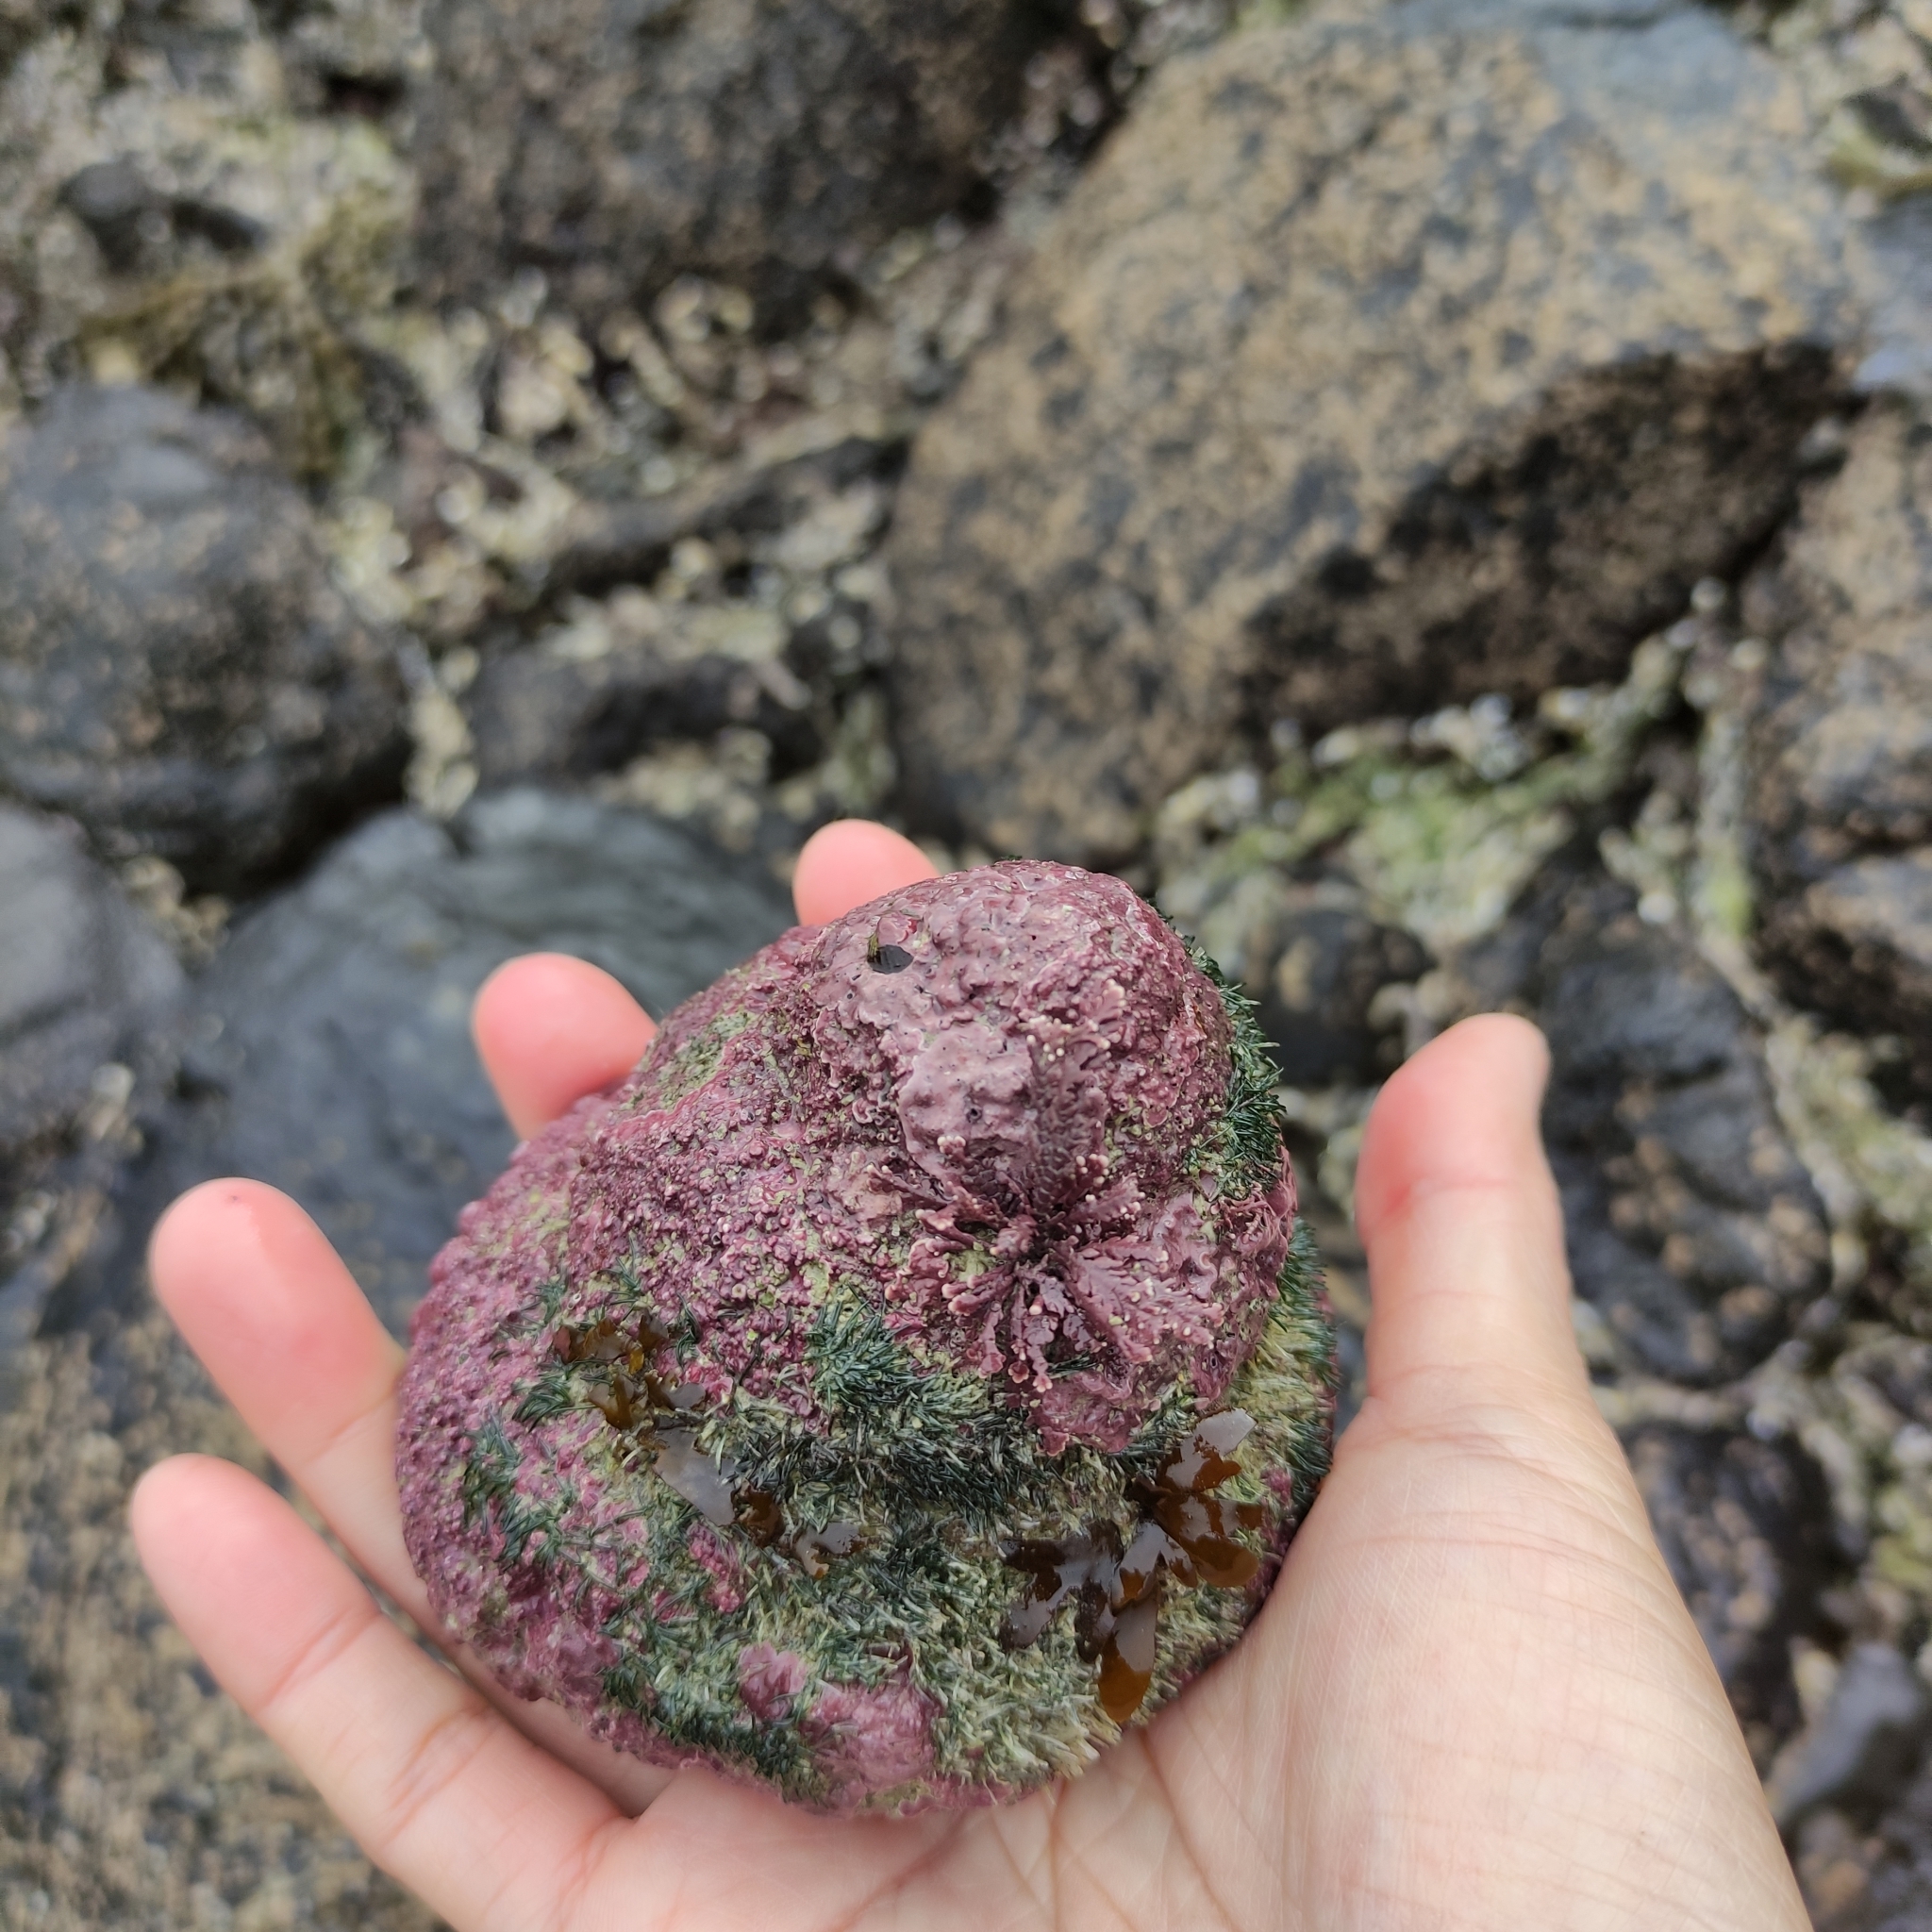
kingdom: Animalia
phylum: Mollusca
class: Gastropoda
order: Trochida
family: Turbinidae
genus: Cookia
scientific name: Cookia sulcata
